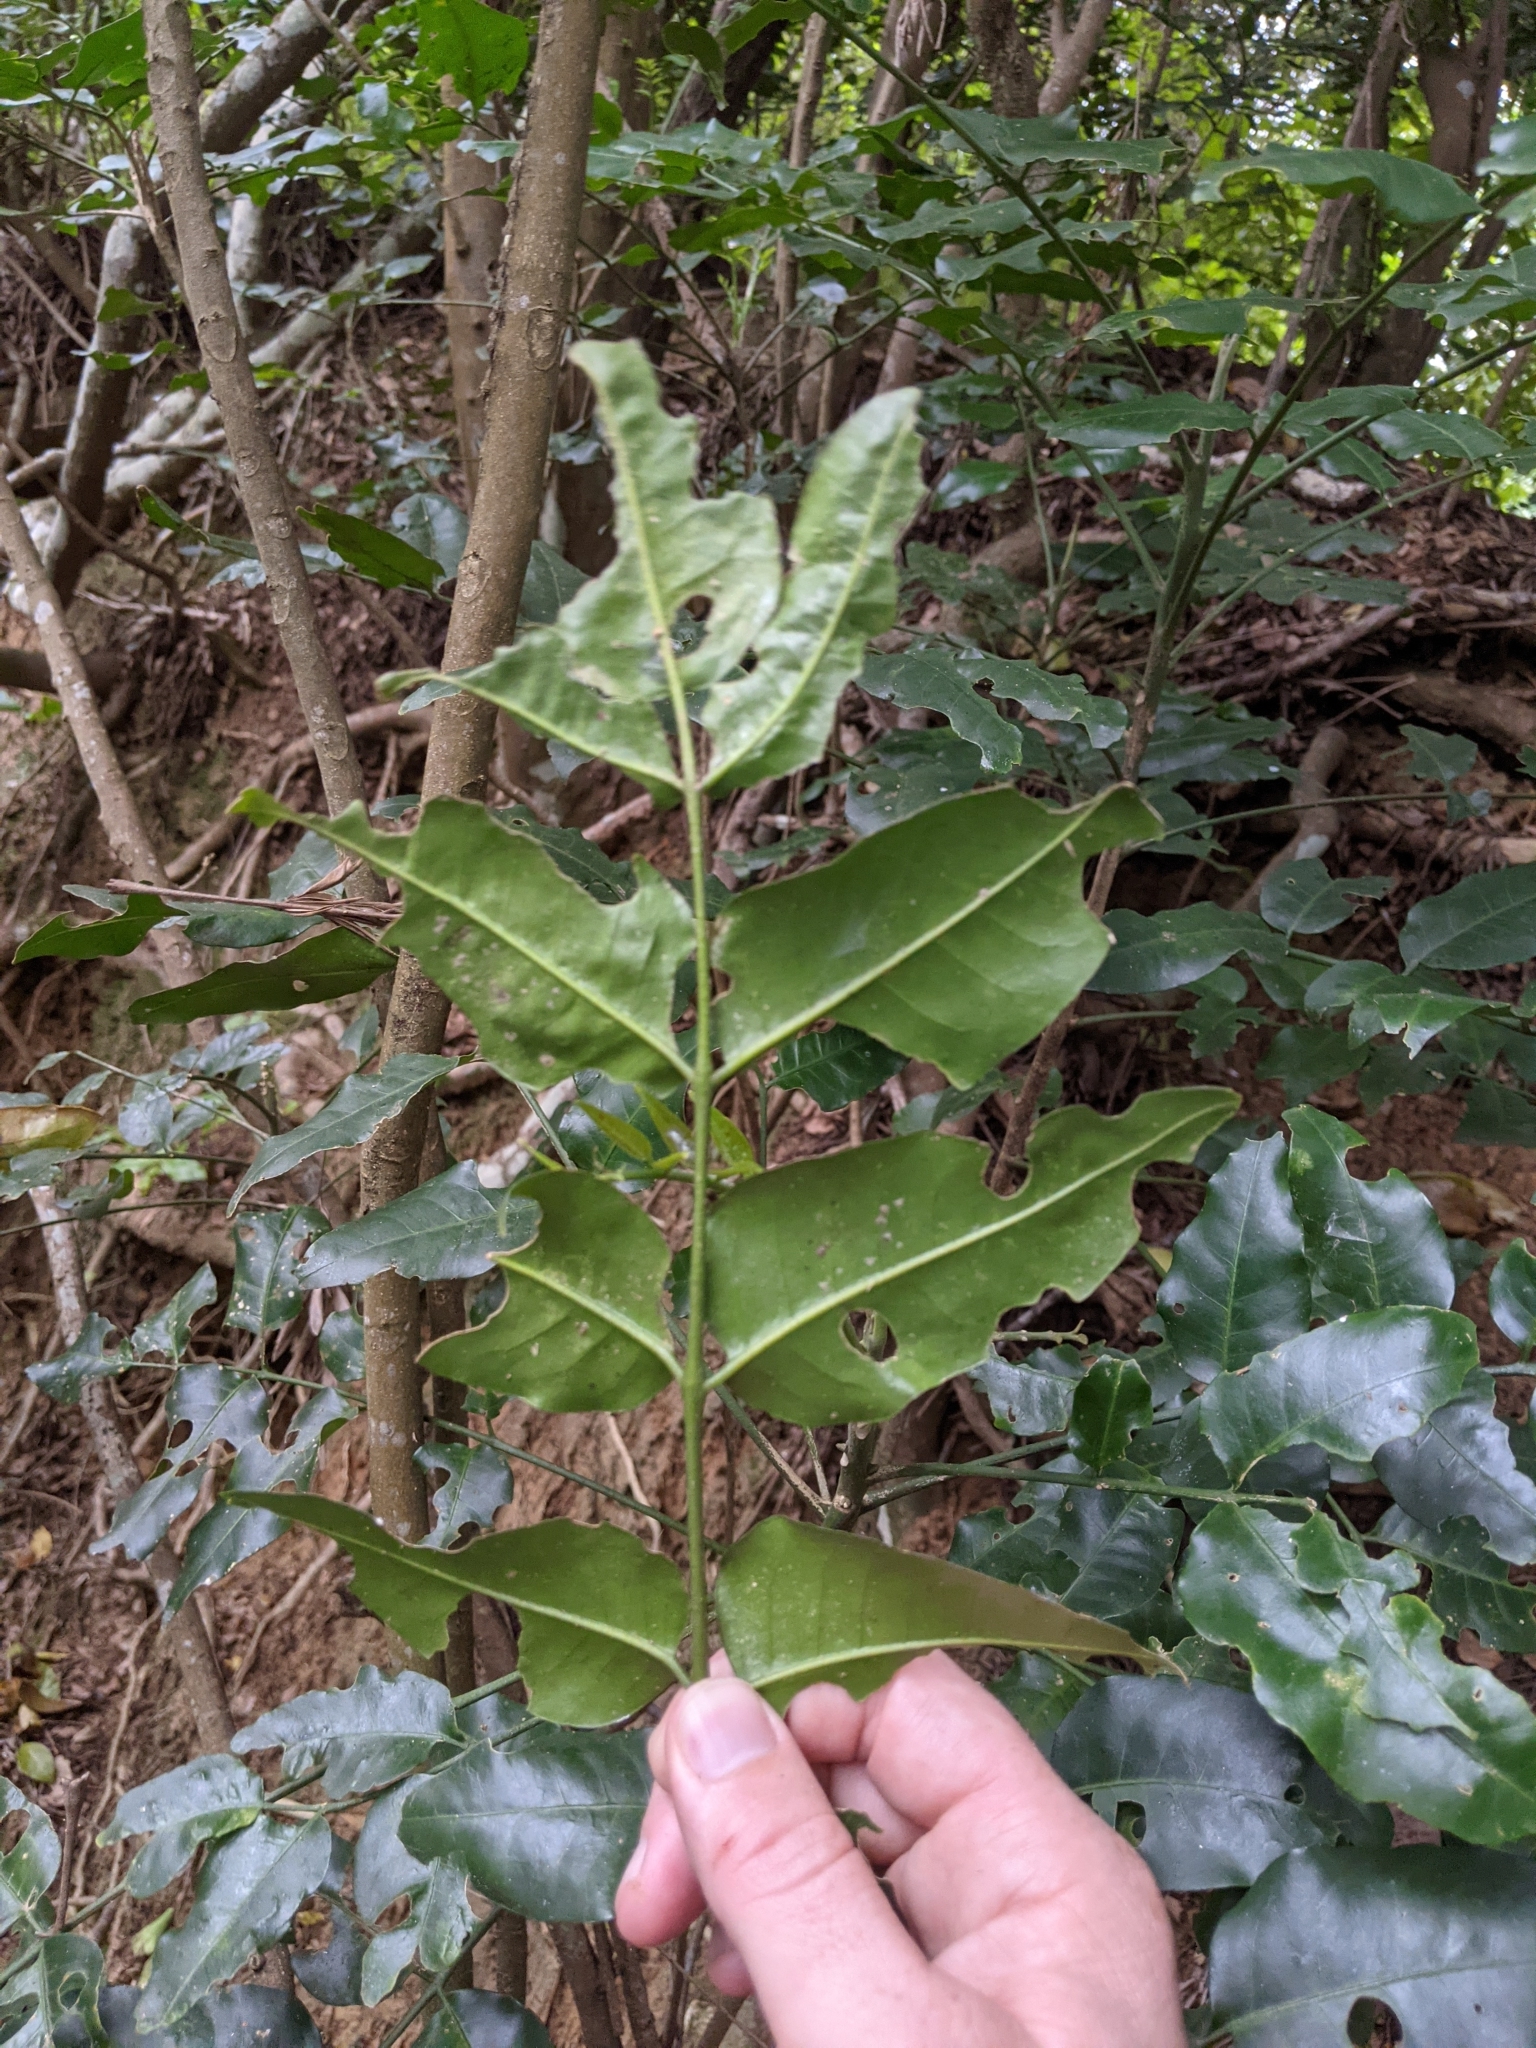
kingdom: Plantae
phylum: Tracheophyta
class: Magnoliopsida
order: Sapindales
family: Rutaceae
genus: Pentaceras
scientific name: Pentaceras australe
